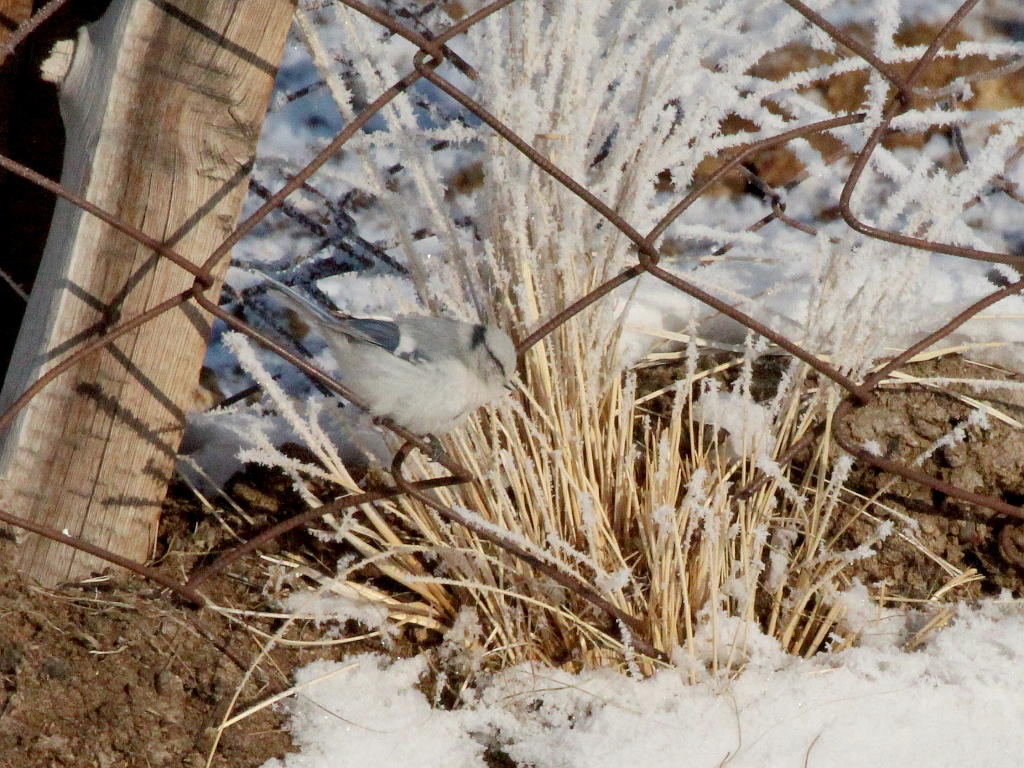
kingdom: Animalia
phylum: Chordata
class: Aves
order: Passeriformes
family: Paridae
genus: Cyanistes
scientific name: Cyanistes cyanus
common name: Azure tit
